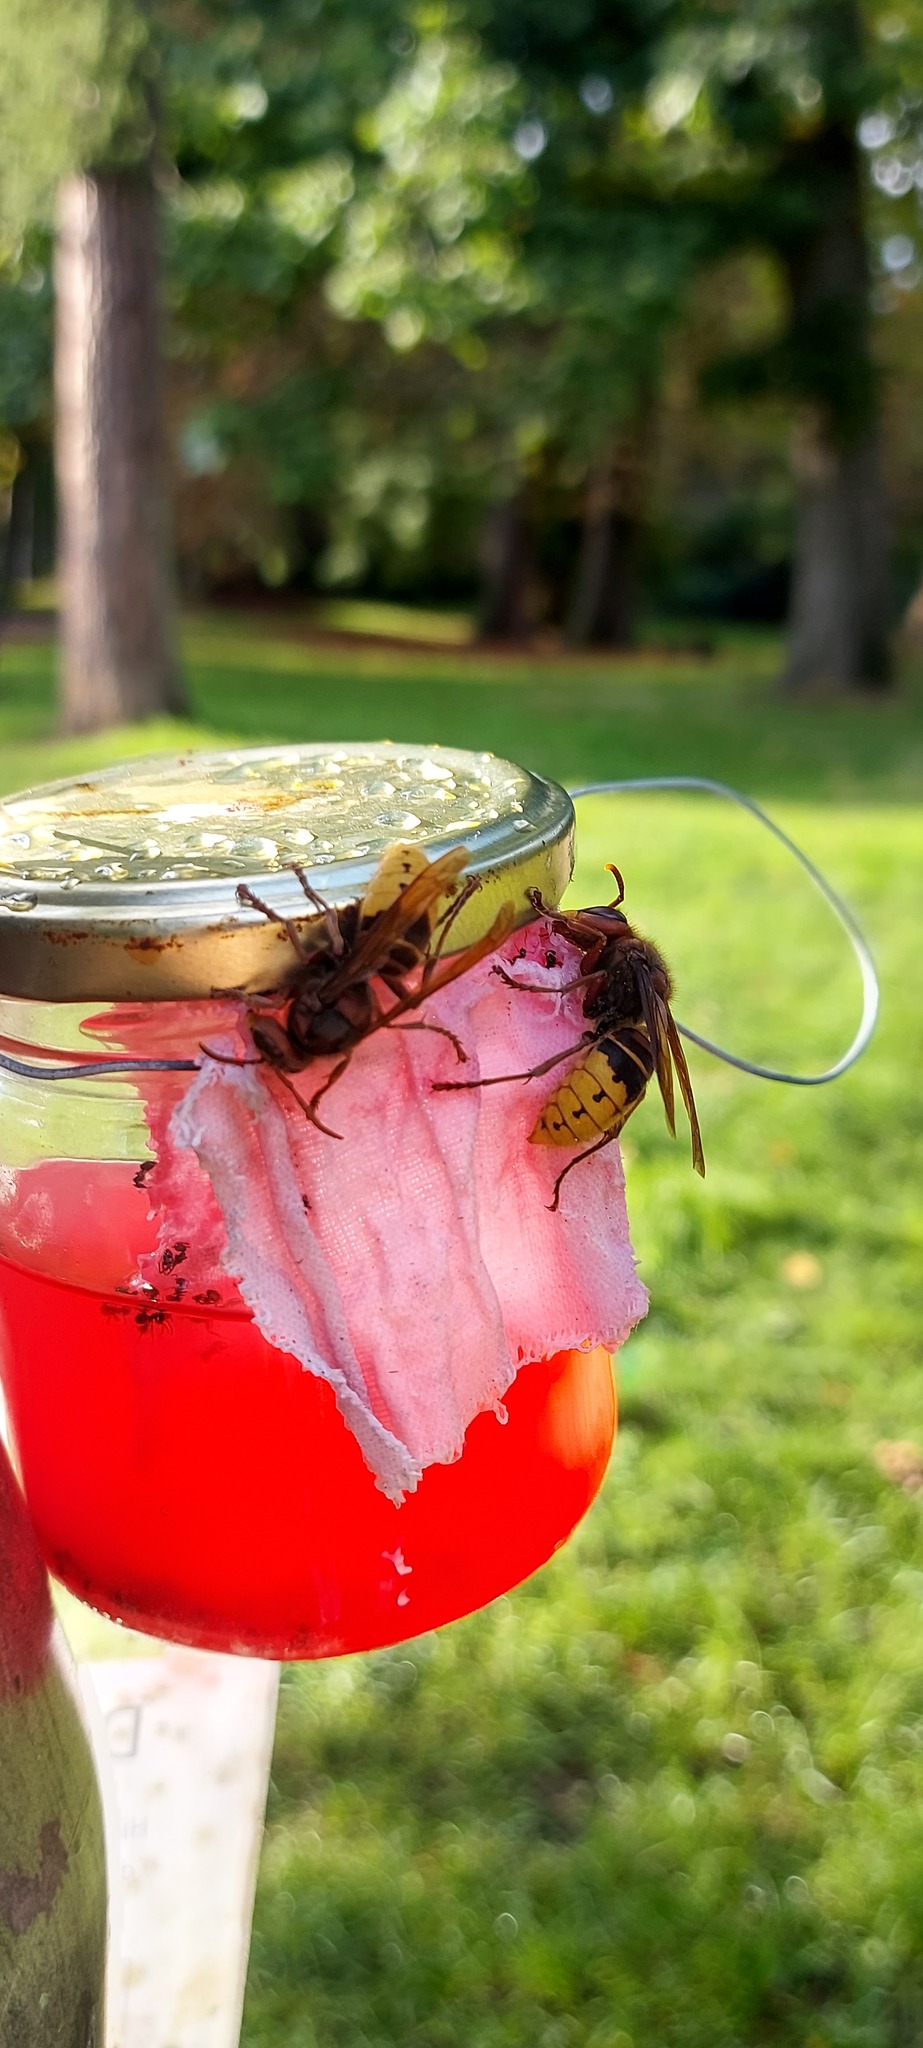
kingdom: Animalia
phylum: Arthropoda
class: Insecta
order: Hymenoptera
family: Vespidae
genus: Vespa
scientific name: Vespa crabro
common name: Hornet
